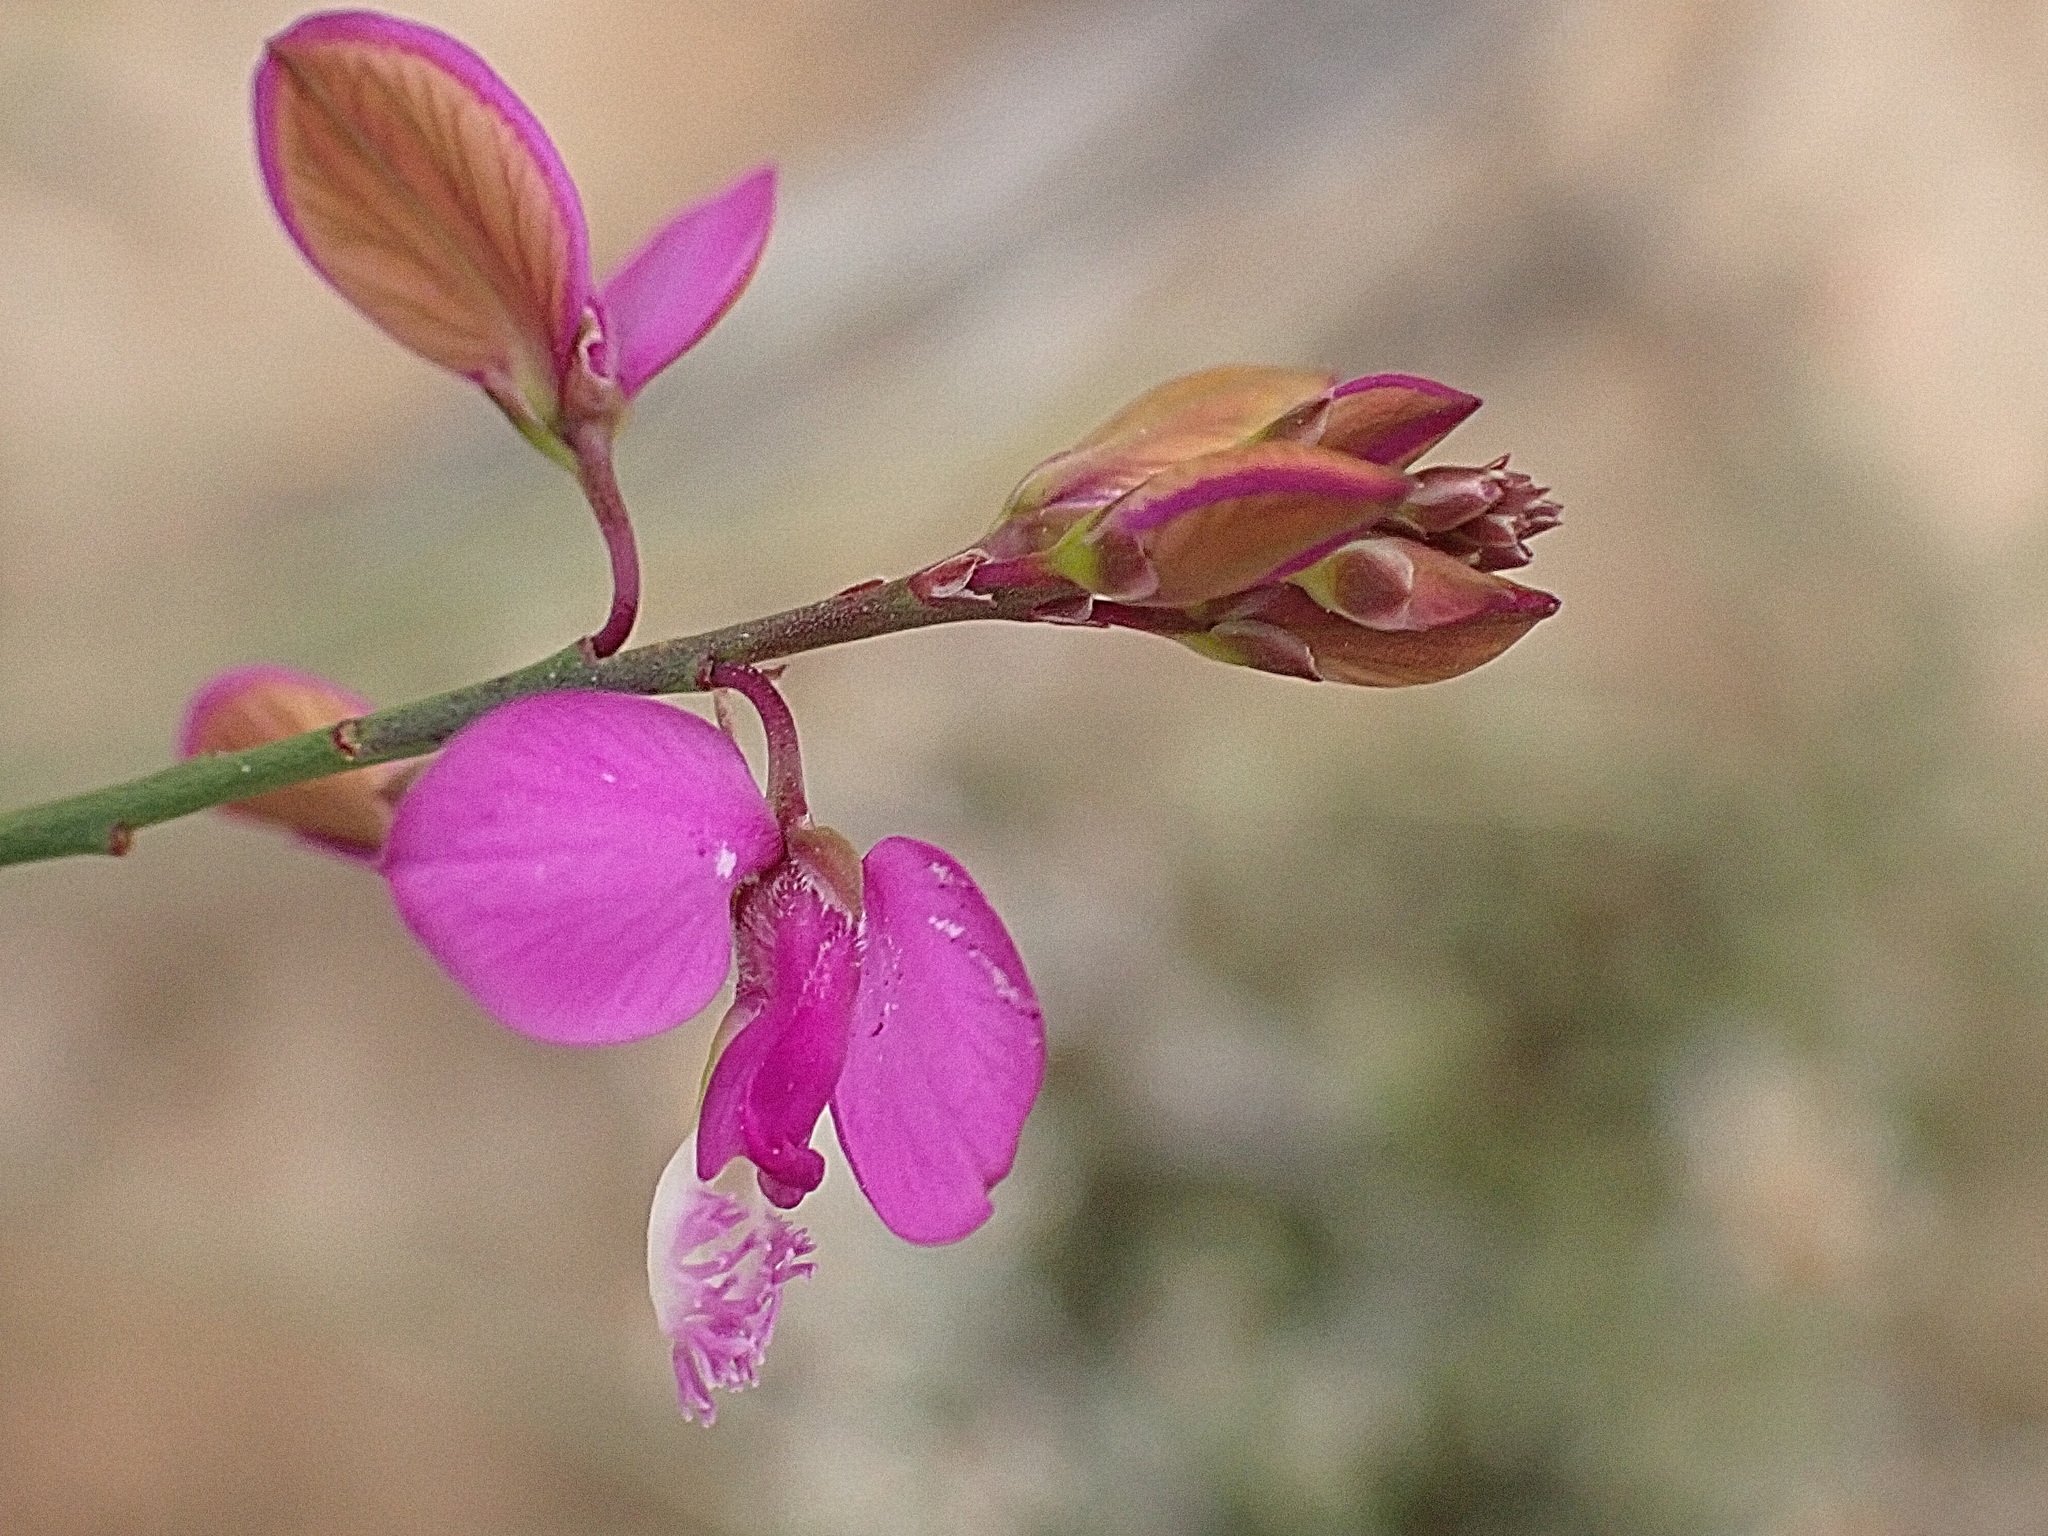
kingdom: Plantae
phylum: Tracheophyta
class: Magnoliopsida
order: Fabales
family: Polygalaceae
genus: Polygala
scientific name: Polygala garcini
